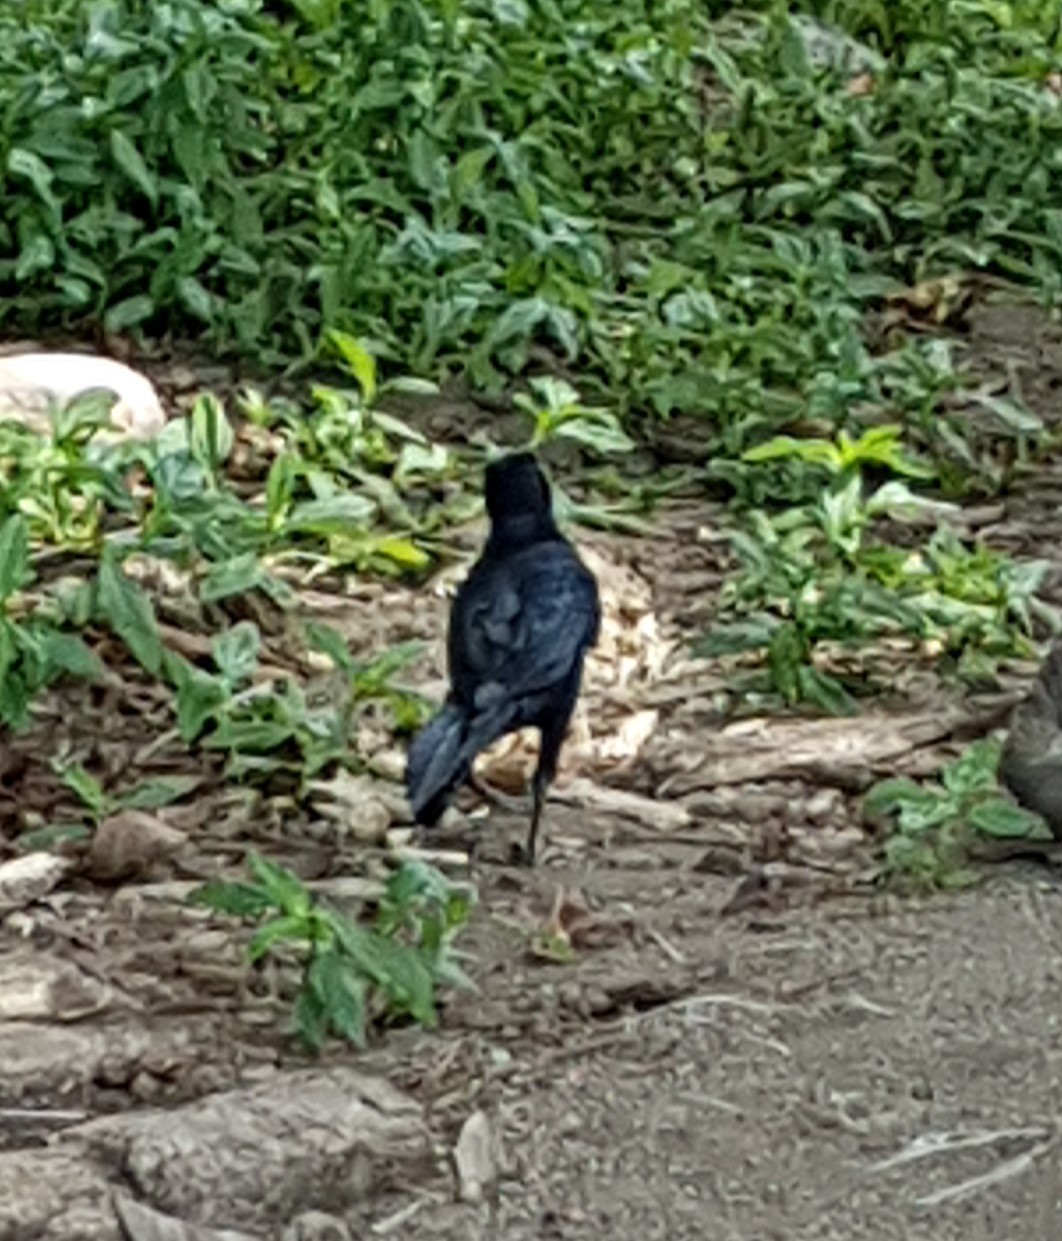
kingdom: Animalia
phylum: Chordata
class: Aves
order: Passeriformes
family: Icteridae
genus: Quiscalus
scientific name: Quiscalus mexicanus
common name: Great-tailed grackle
